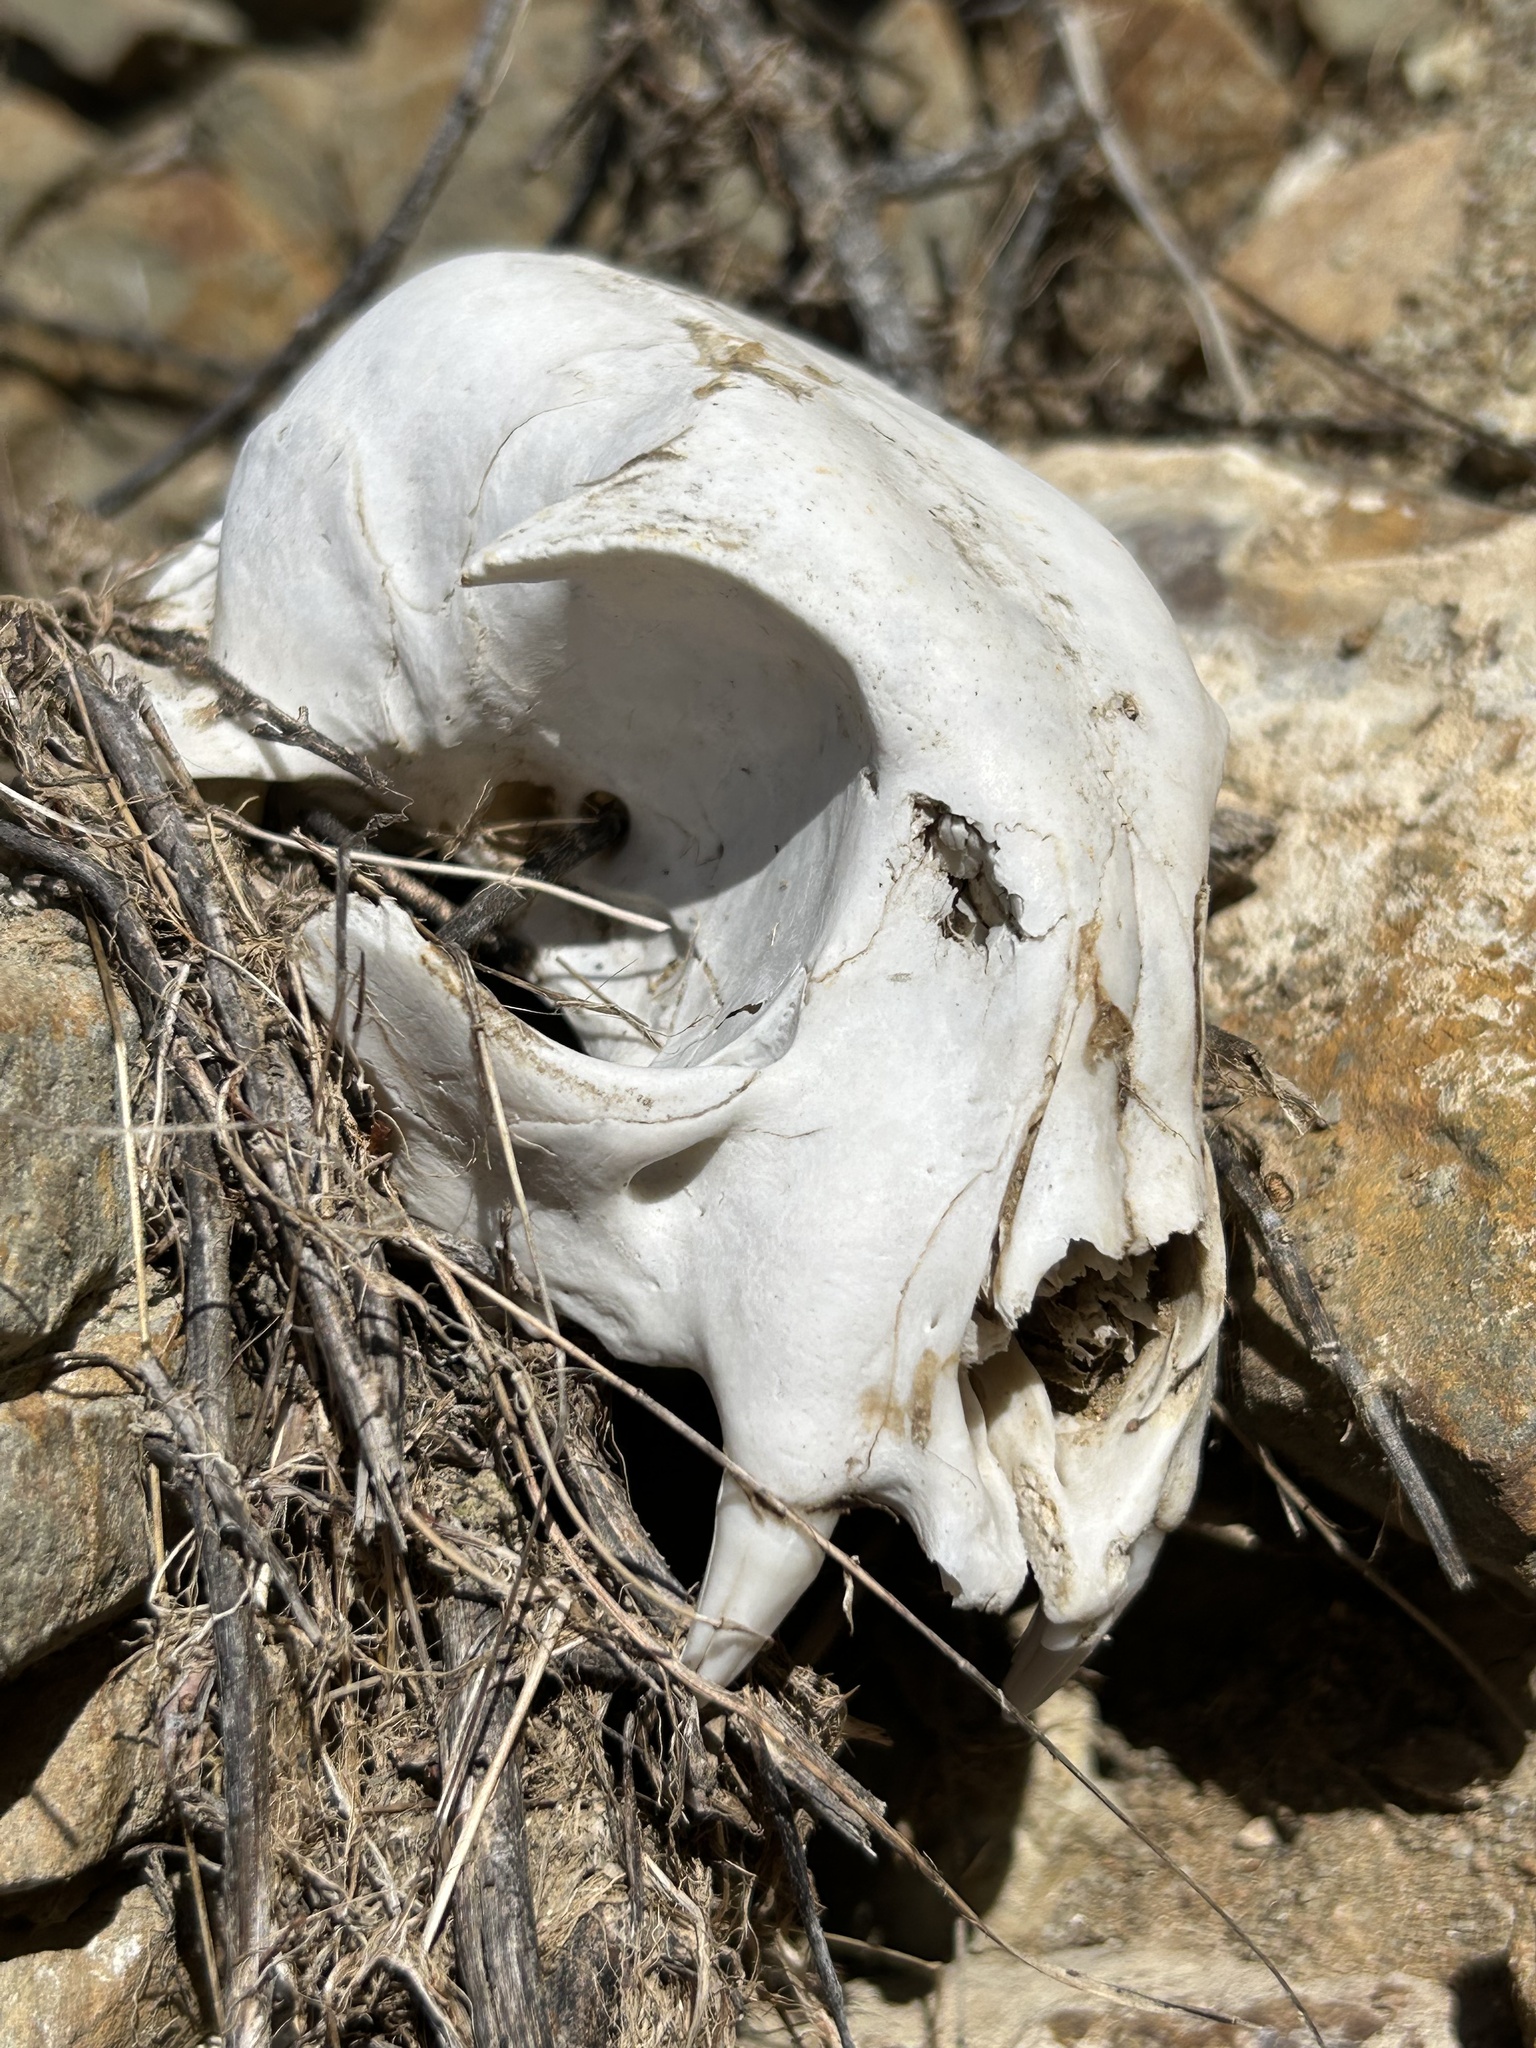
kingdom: Animalia
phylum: Chordata
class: Mammalia
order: Carnivora
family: Felidae
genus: Lynx
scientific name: Lynx rufus
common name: Bobcat
